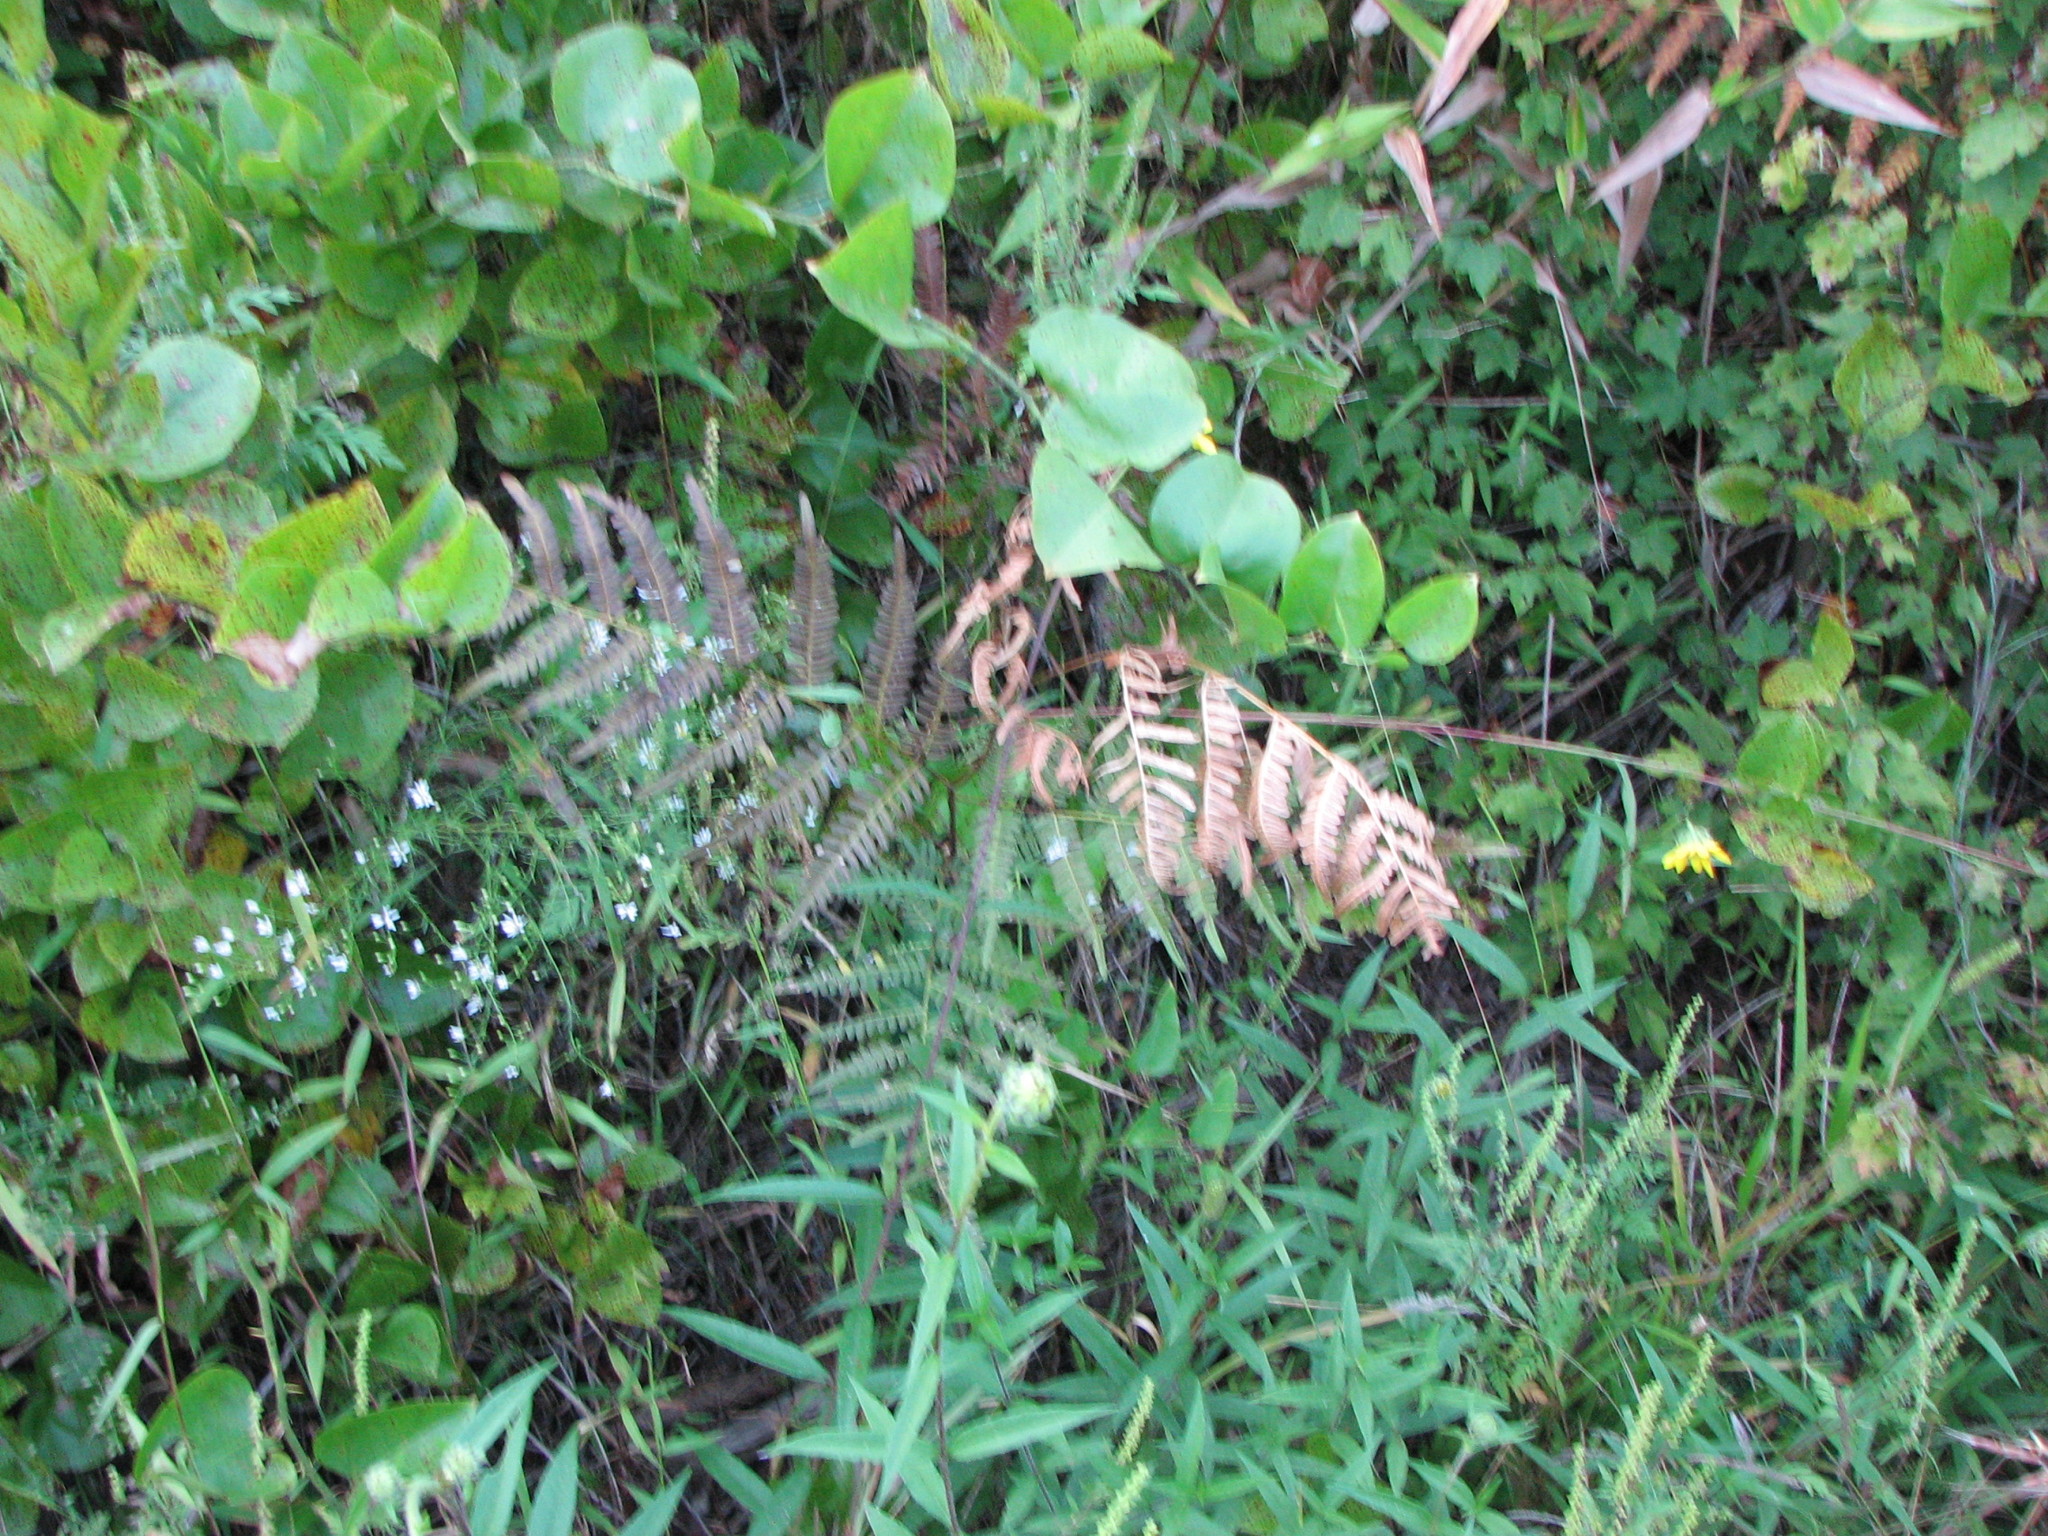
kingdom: Plantae
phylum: Tracheophyta
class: Polypodiopsida
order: Polypodiales
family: Dennstaedtiaceae
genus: Pteridium
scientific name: Pteridium aquilinum
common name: Bracken
